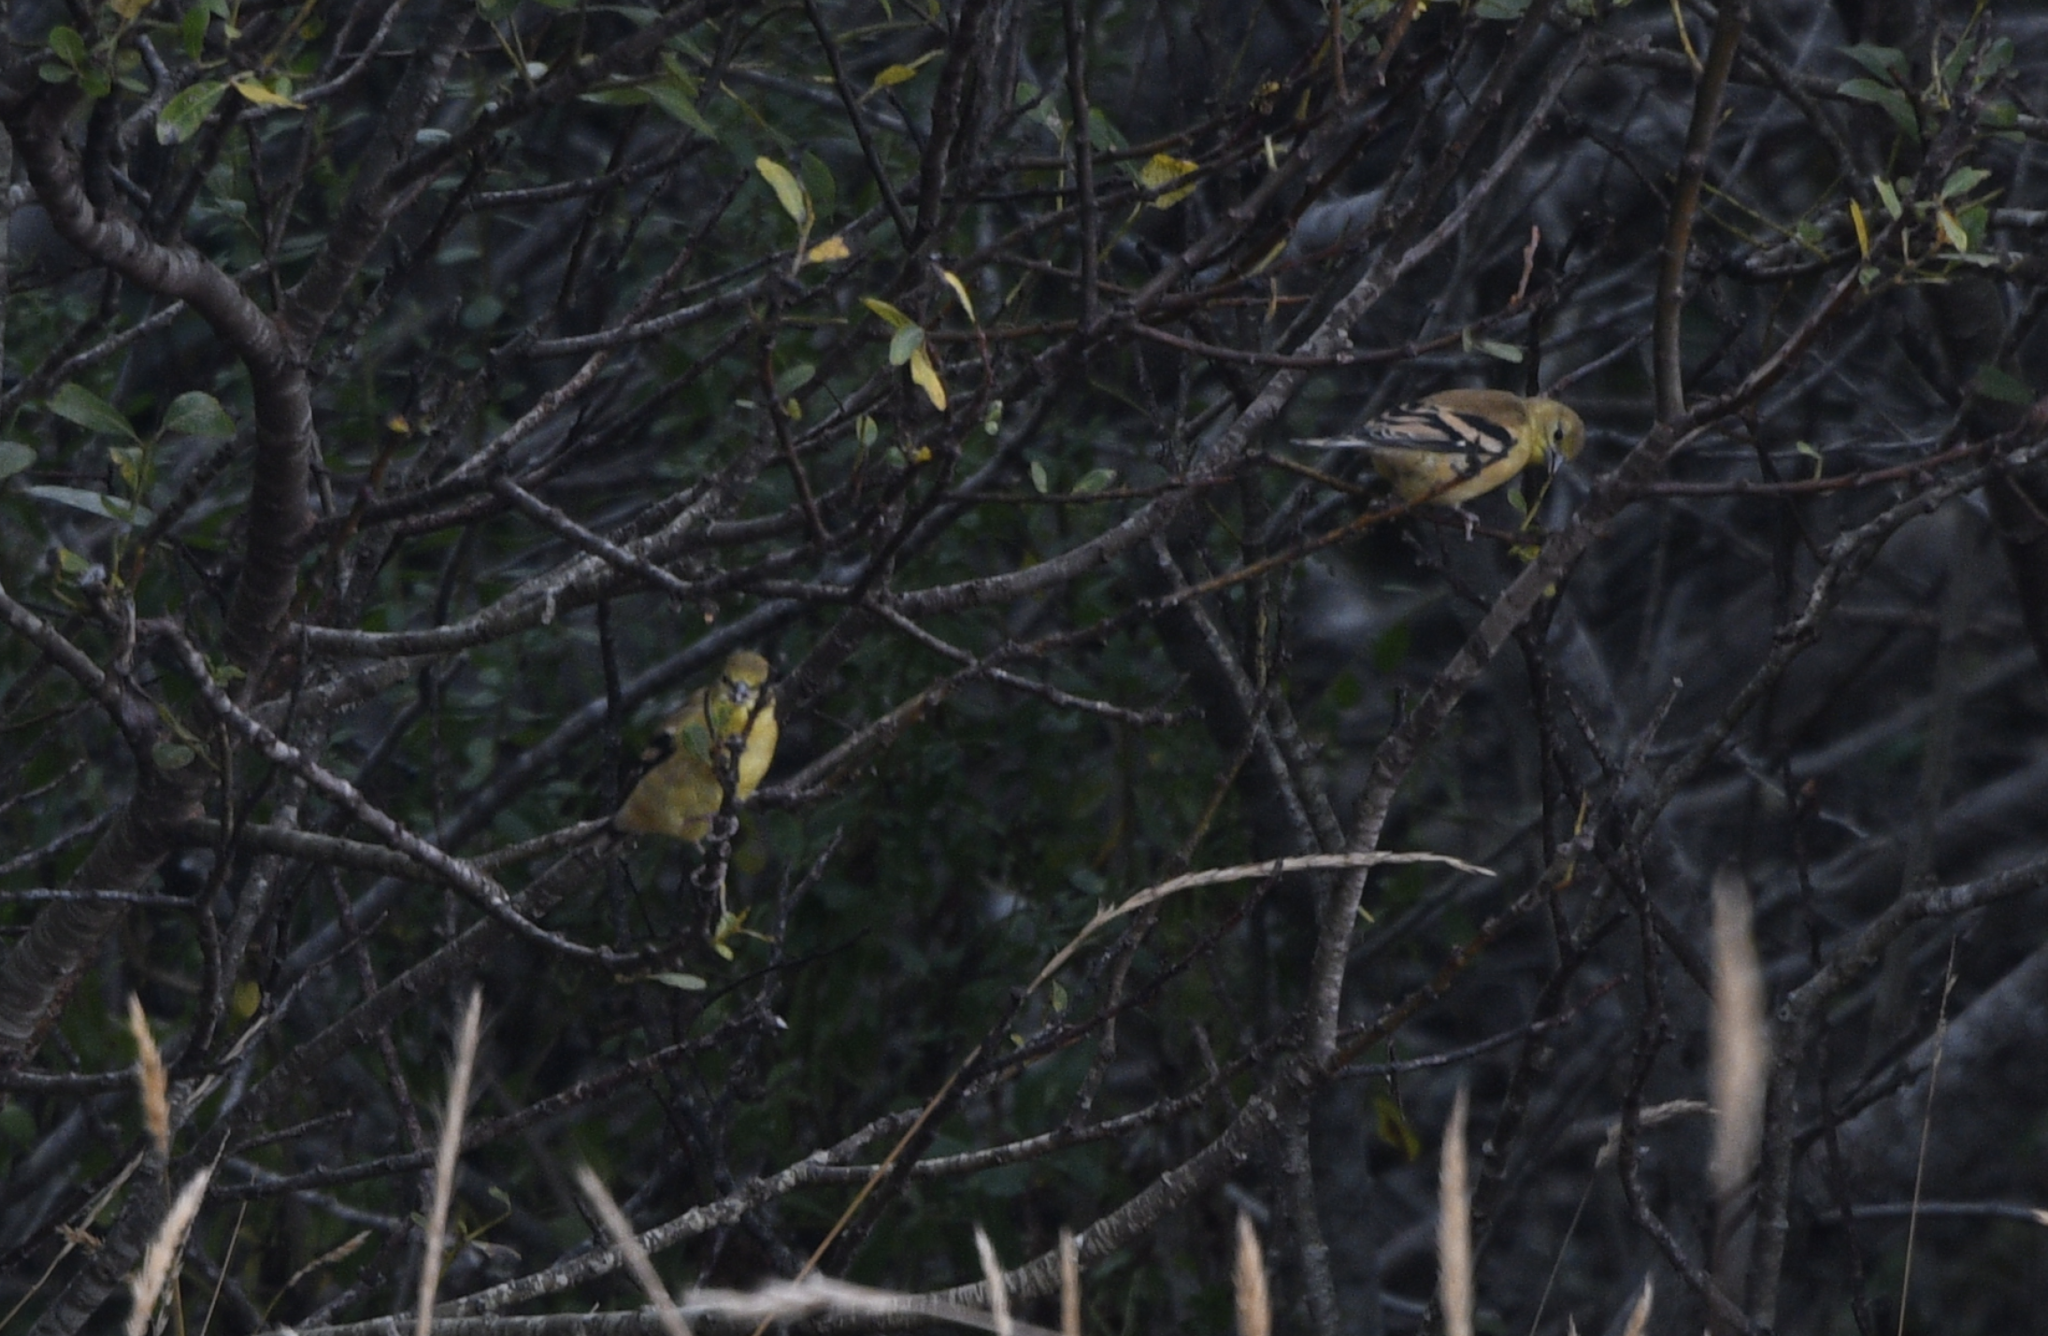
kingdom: Animalia
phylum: Chordata
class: Aves
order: Passeriformes
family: Fringillidae
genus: Spinus
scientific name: Spinus tristis
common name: American goldfinch
